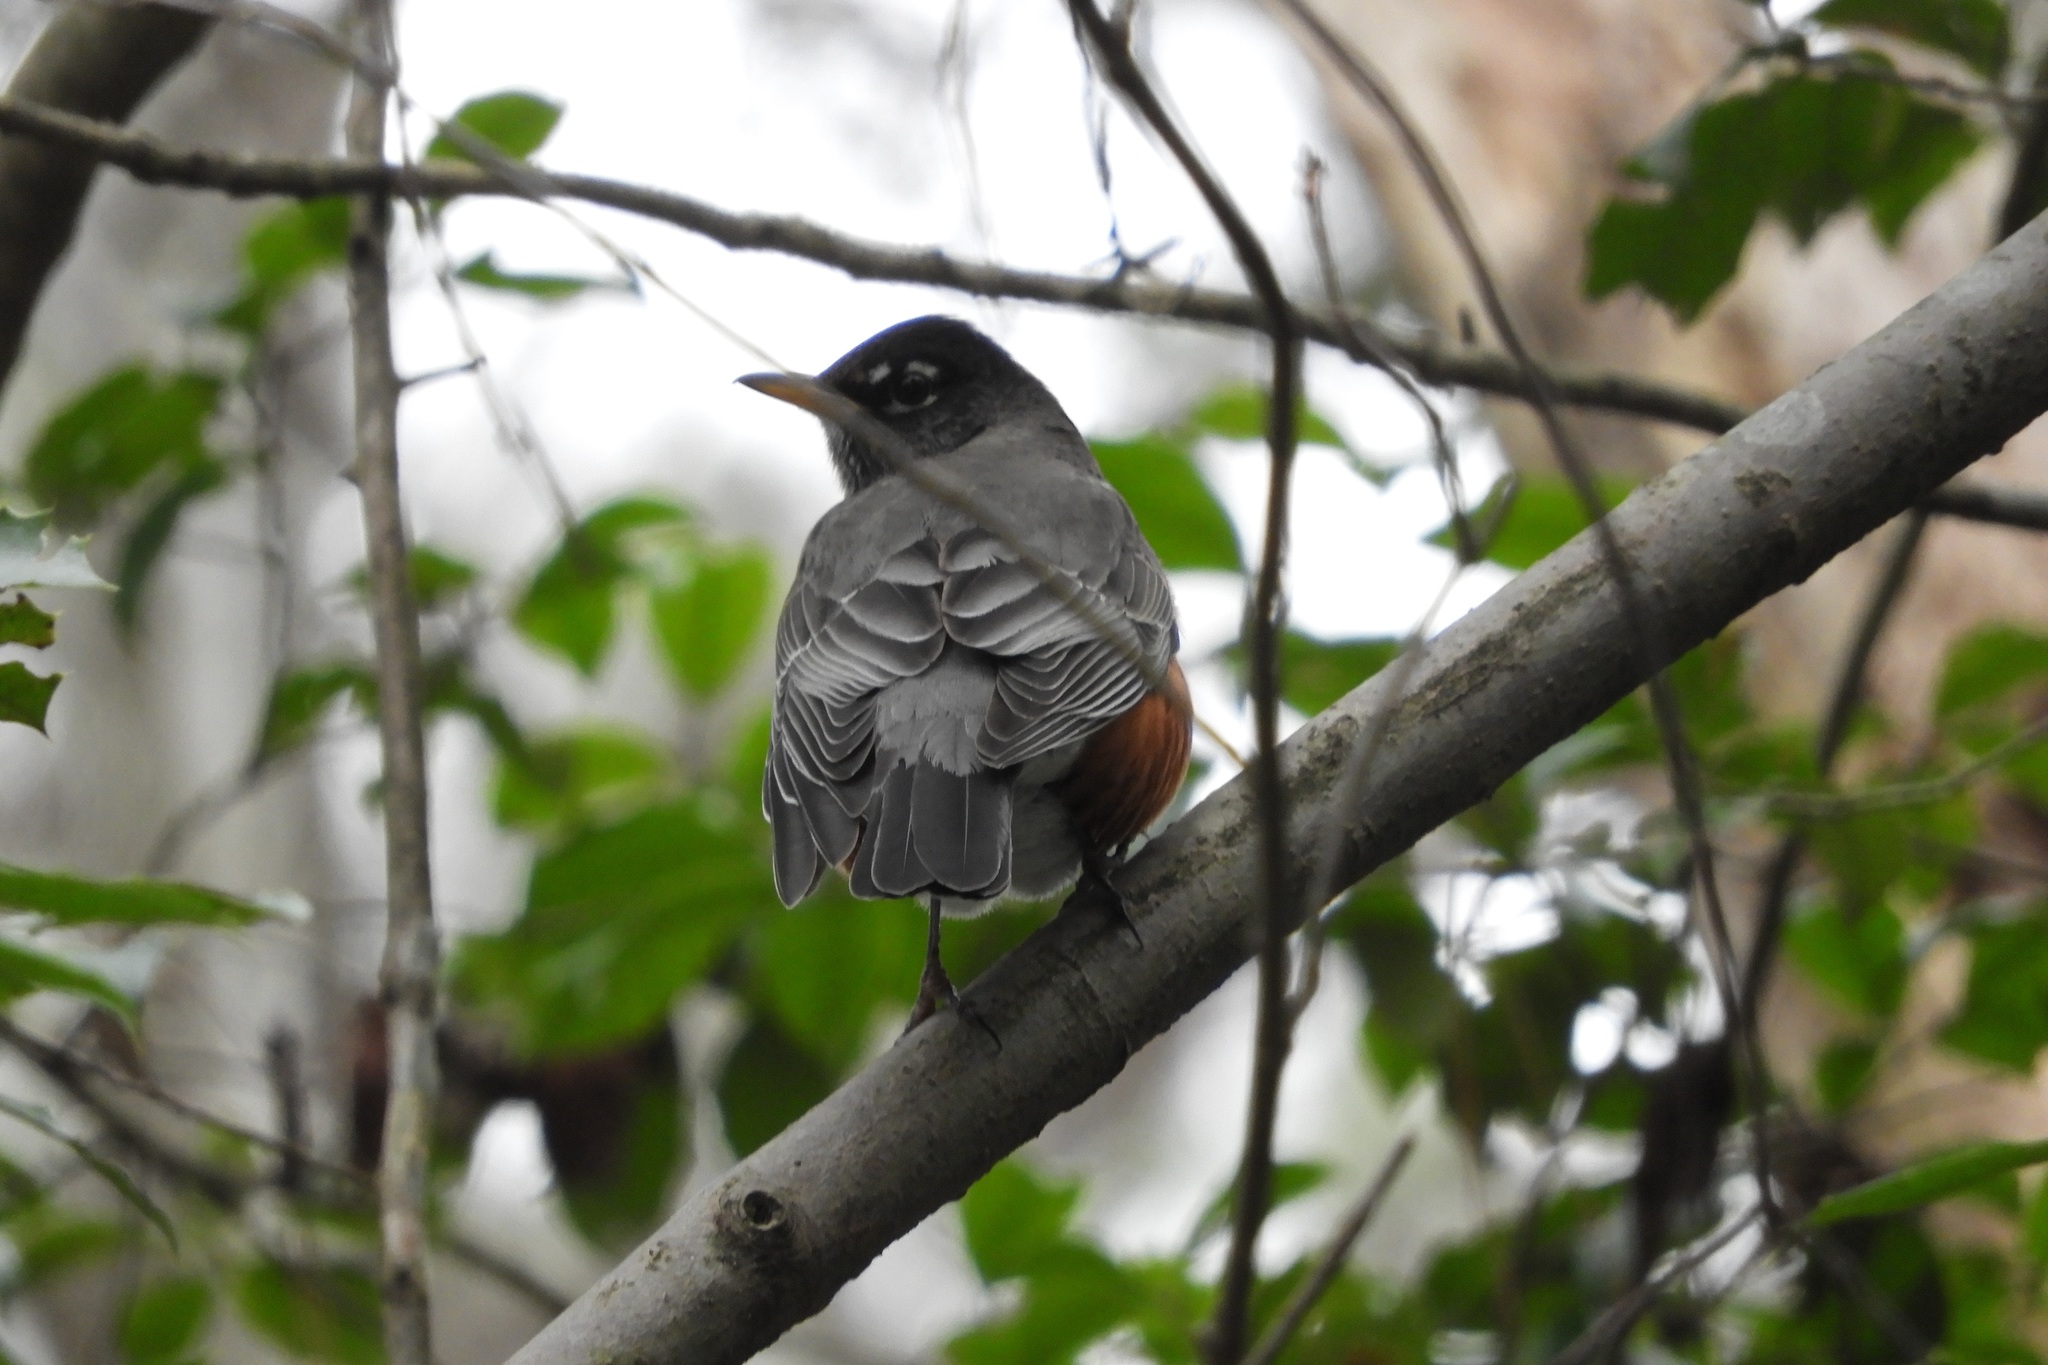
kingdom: Animalia
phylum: Chordata
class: Aves
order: Passeriformes
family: Turdidae
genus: Turdus
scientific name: Turdus migratorius
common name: American robin
